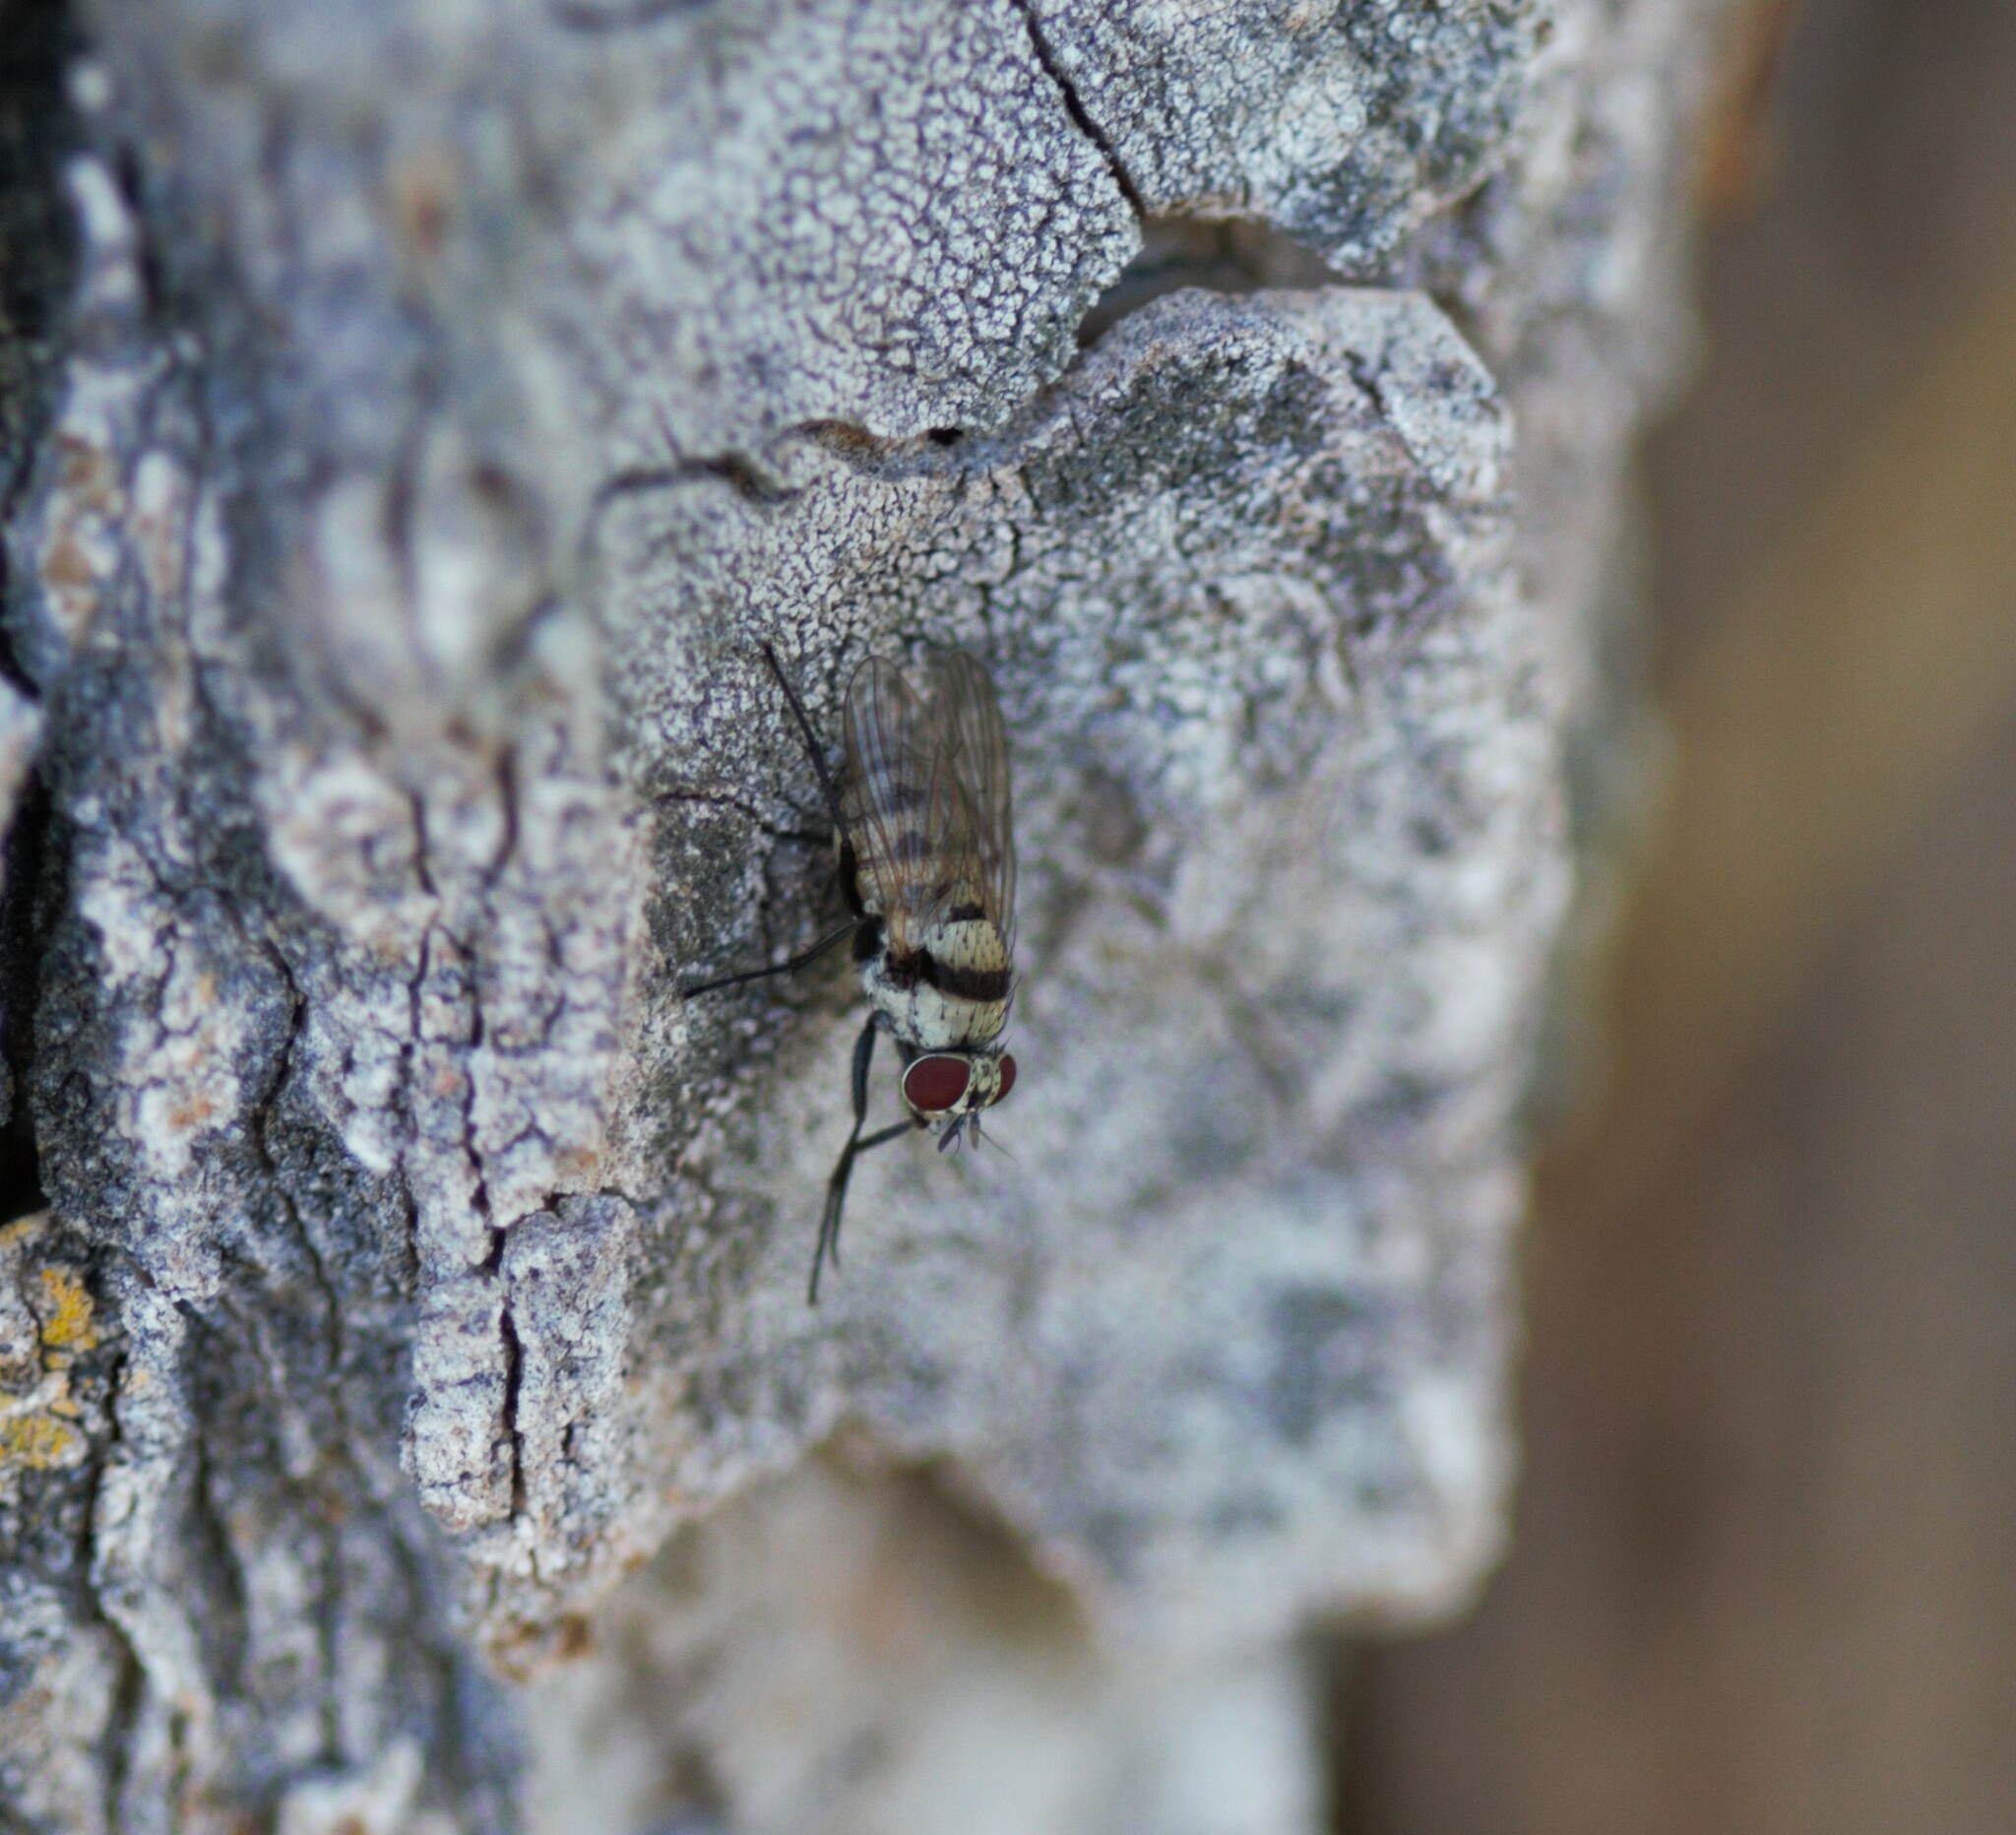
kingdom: Animalia
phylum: Arthropoda
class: Insecta
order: Diptera
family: Anthomyiidae
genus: Anthomyia
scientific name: Anthomyia illocata
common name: Fly
